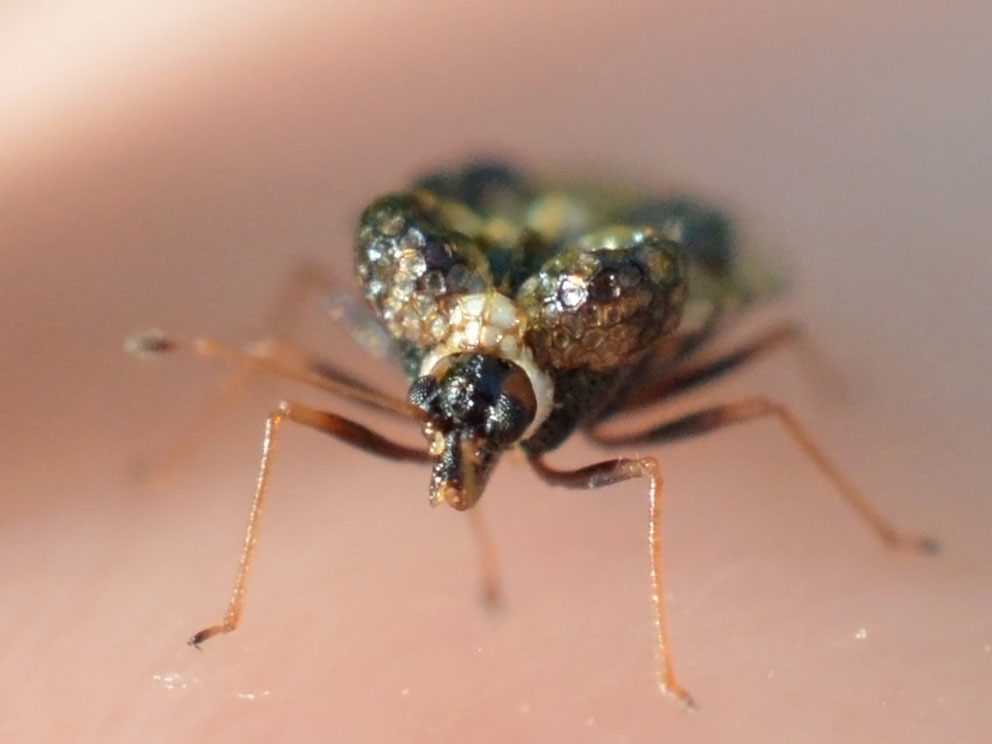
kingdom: Animalia
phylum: Arthropoda
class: Insecta
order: Hemiptera
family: Tingidae
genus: Dictyla
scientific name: Dictyla rotundata
